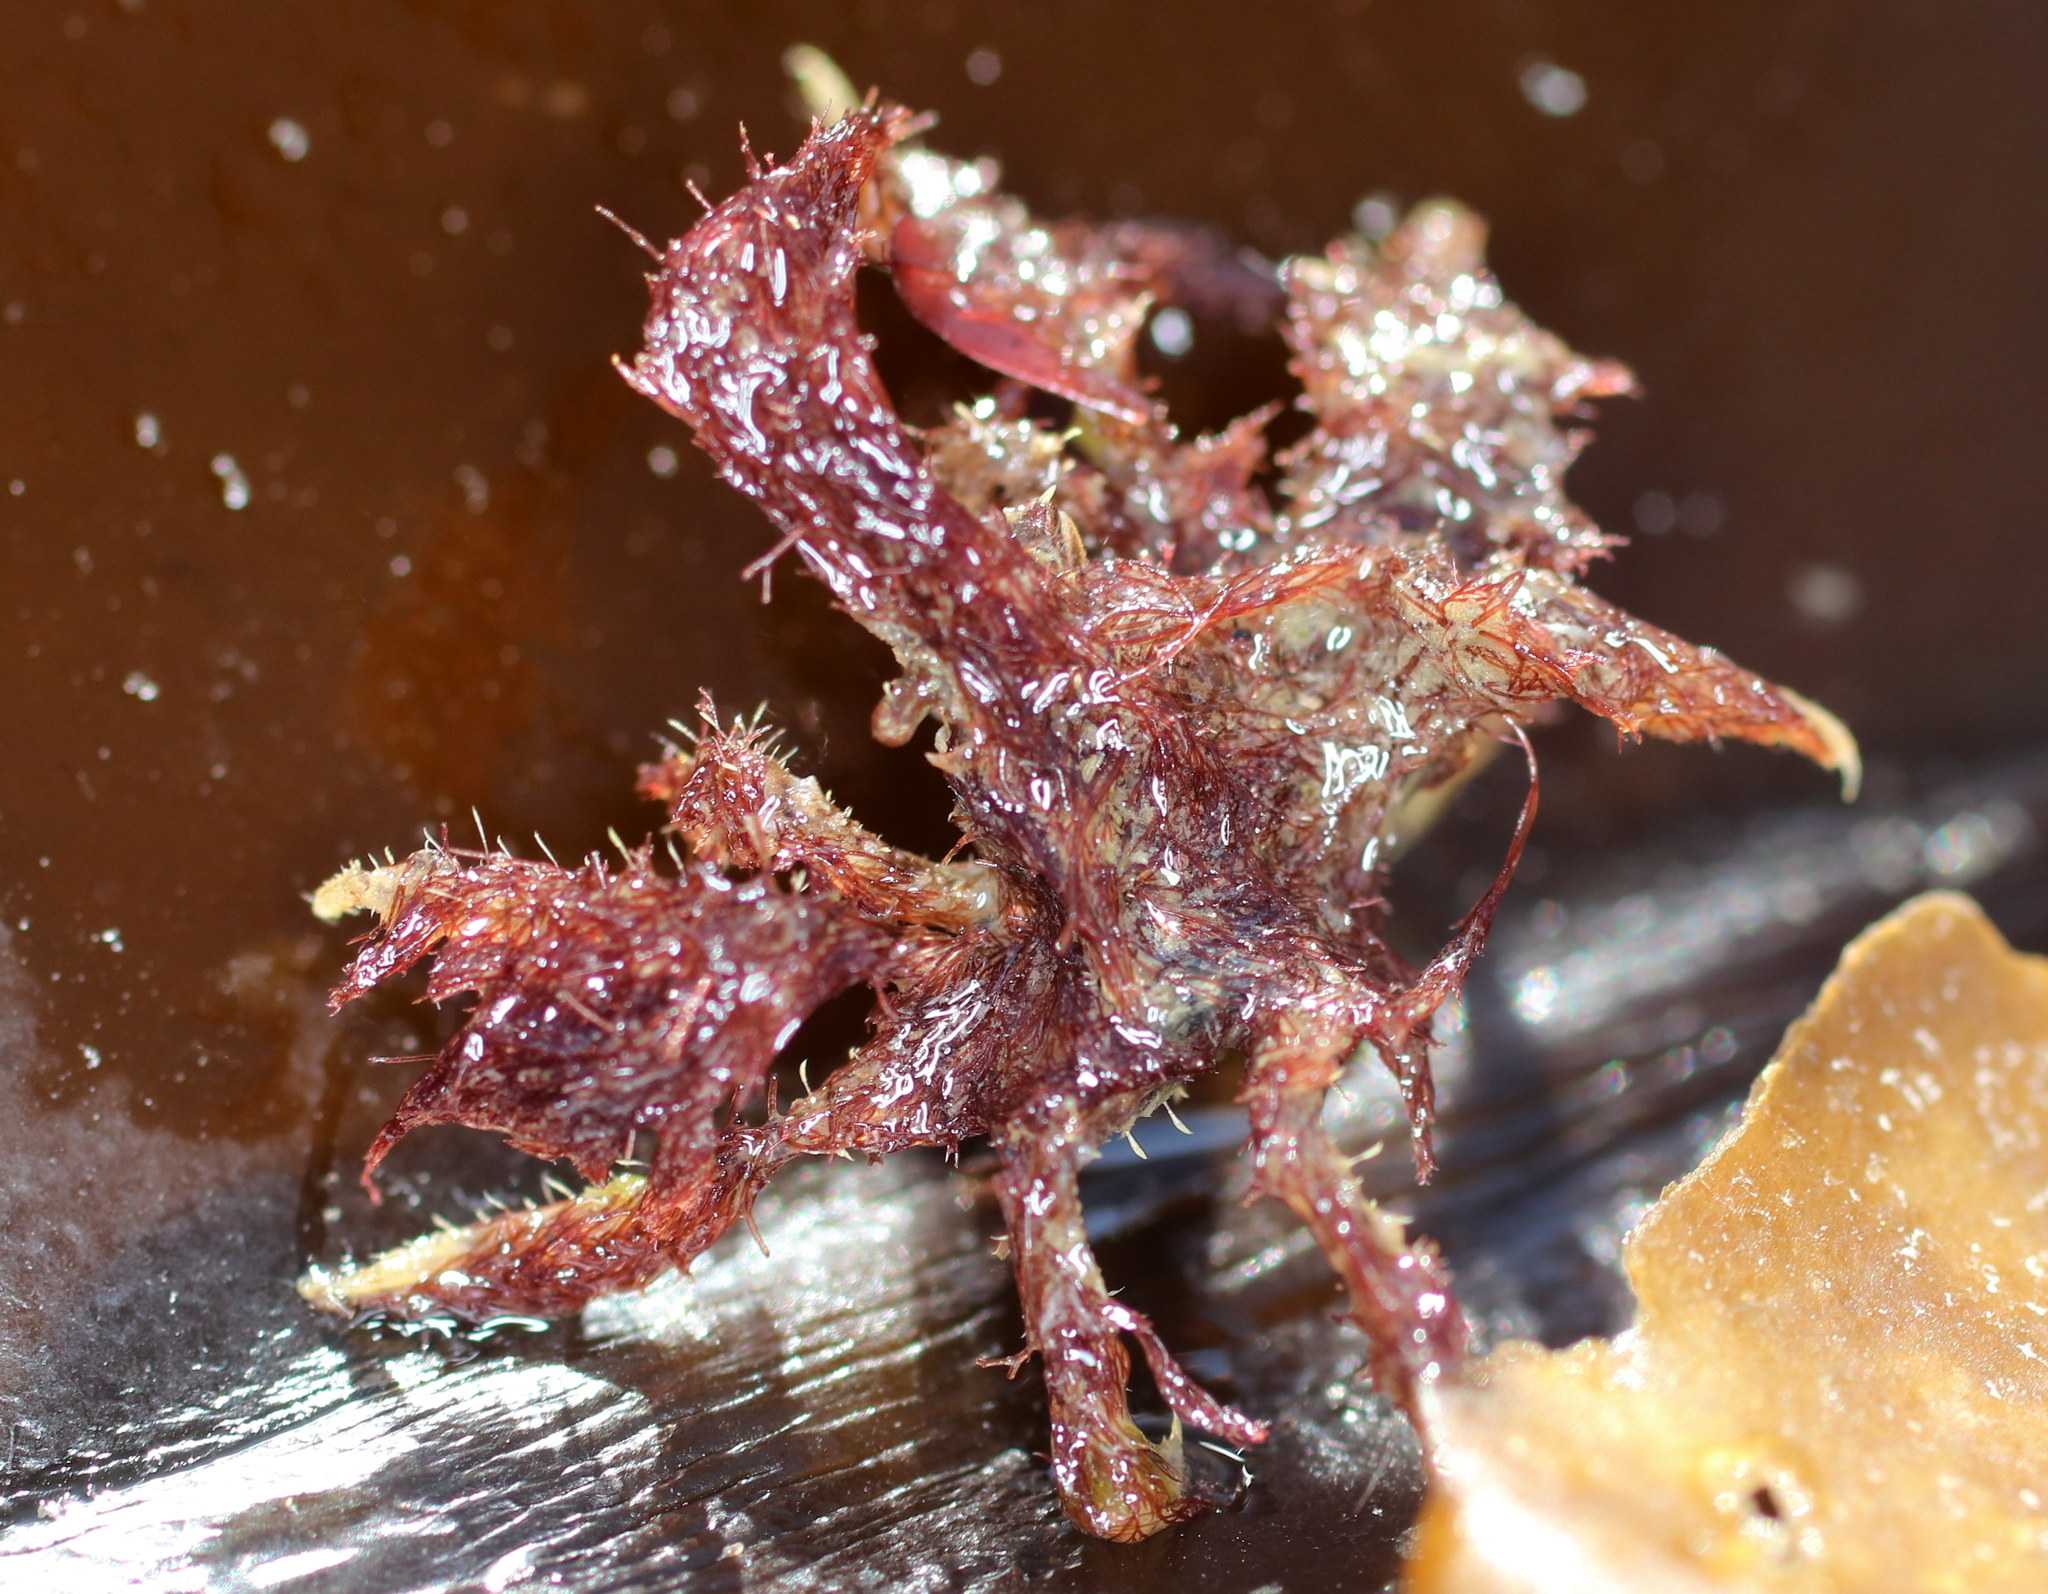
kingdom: Animalia
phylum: Arthropoda
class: Malacostraca
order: Decapoda
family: Oregoniidae
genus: Oregonia
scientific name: Oregonia gracilis
